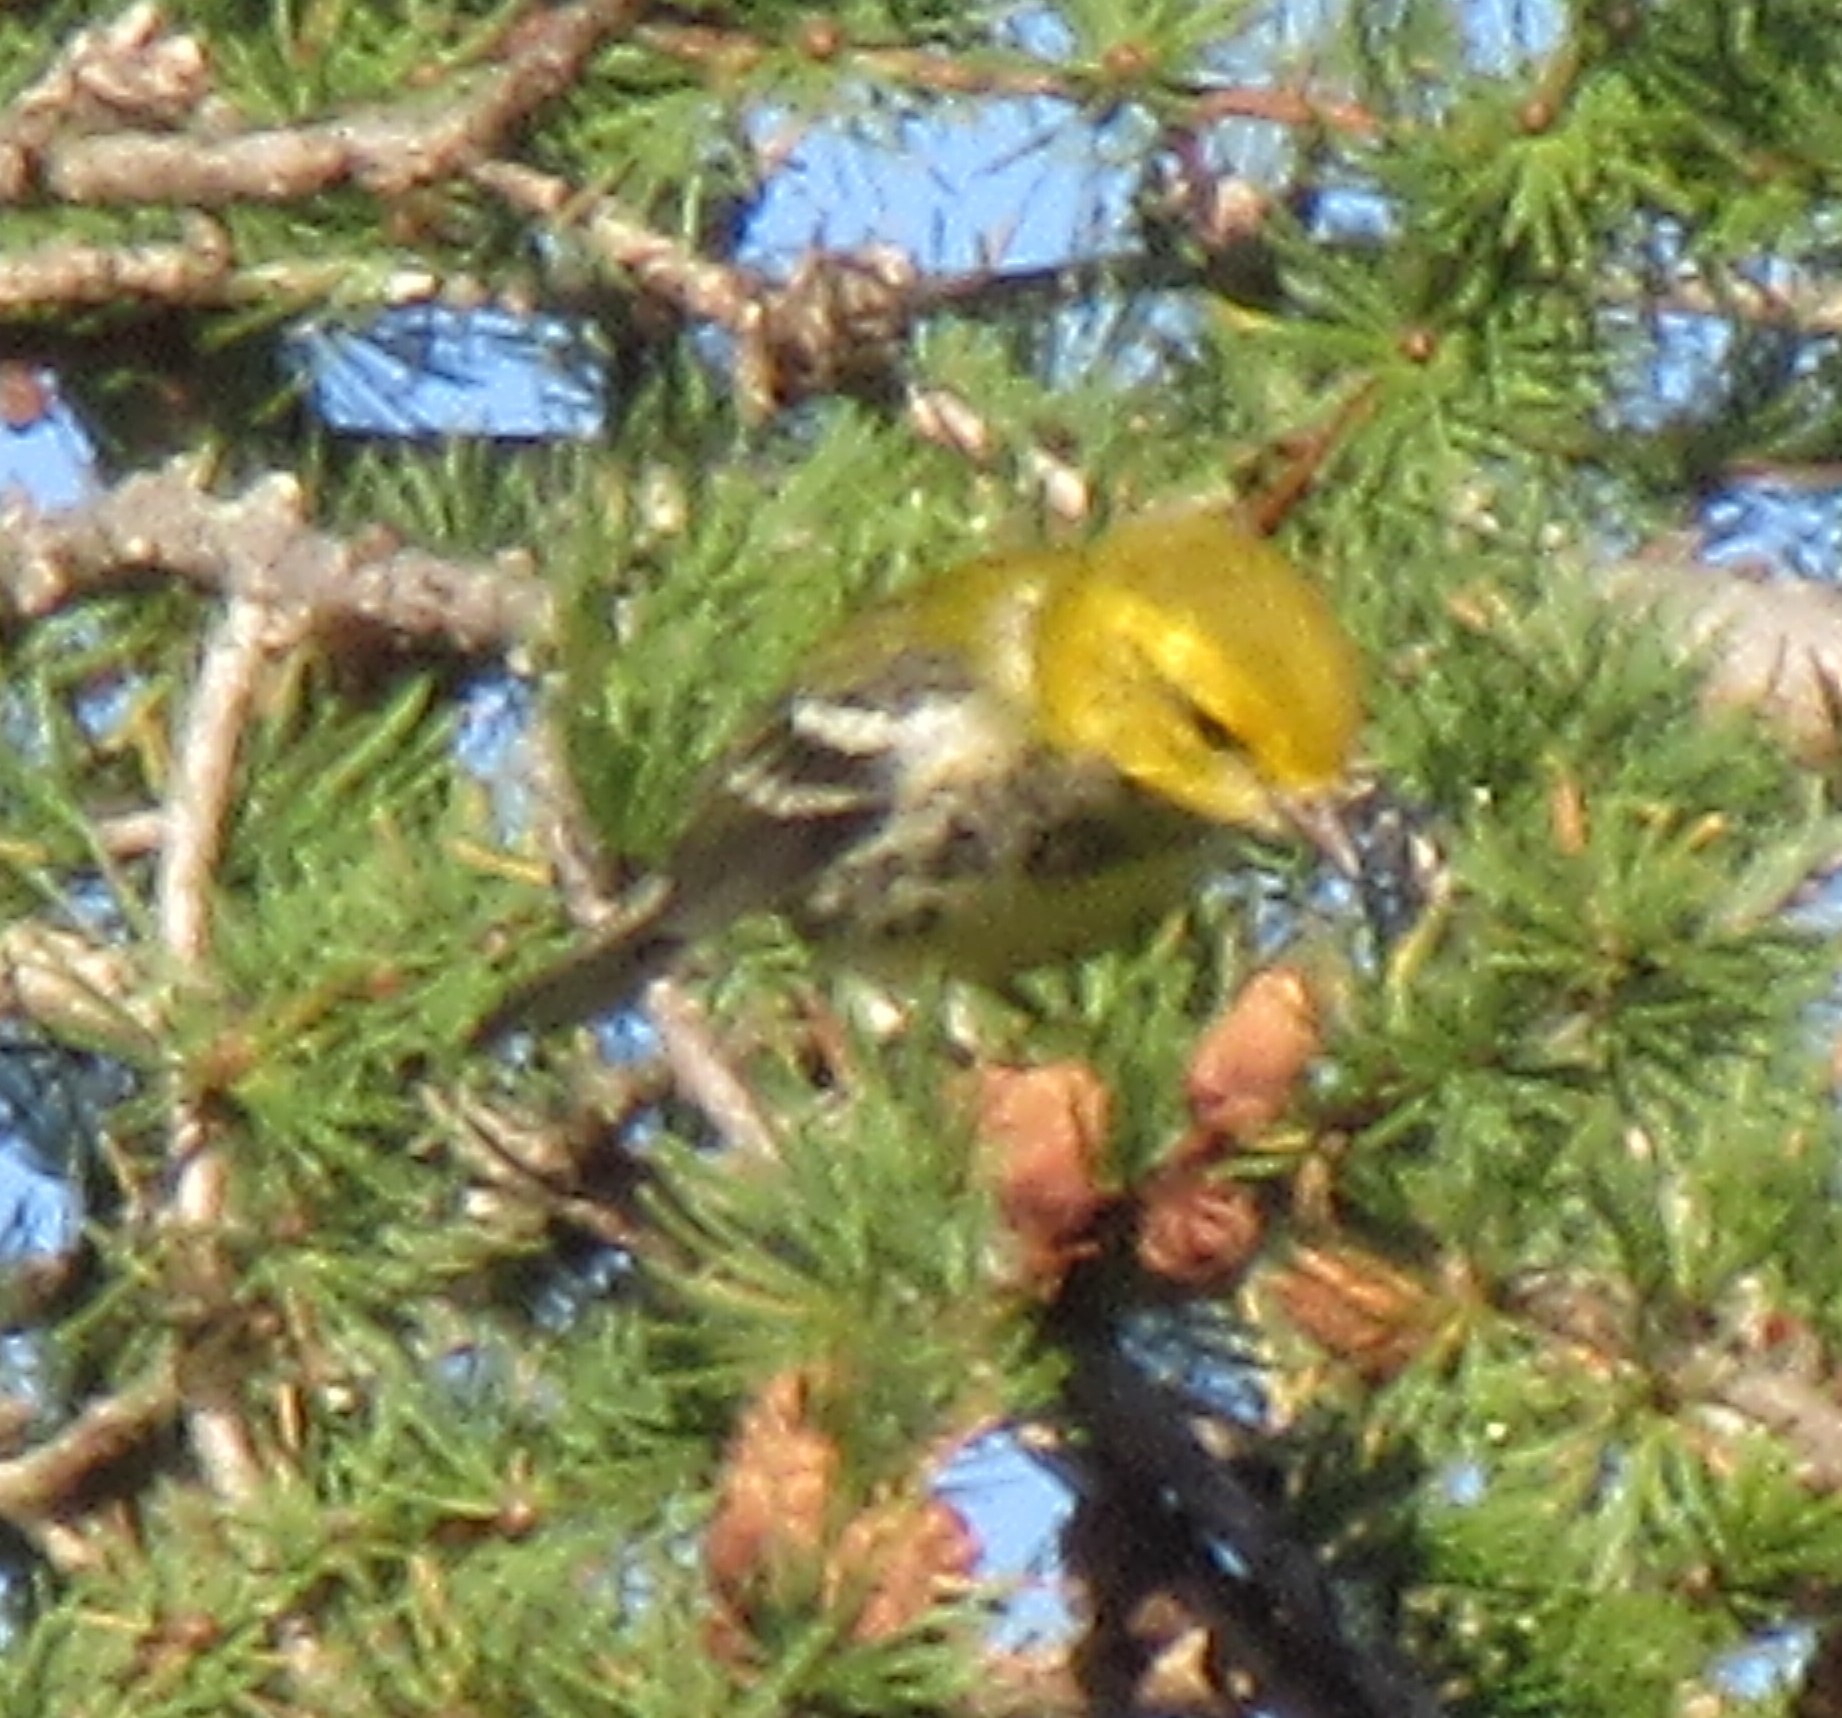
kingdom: Animalia
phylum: Chordata
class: Aves
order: Passeriformes
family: Parulidae
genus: Setophaga
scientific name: Setophaga virens
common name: Black-throated green warbler
